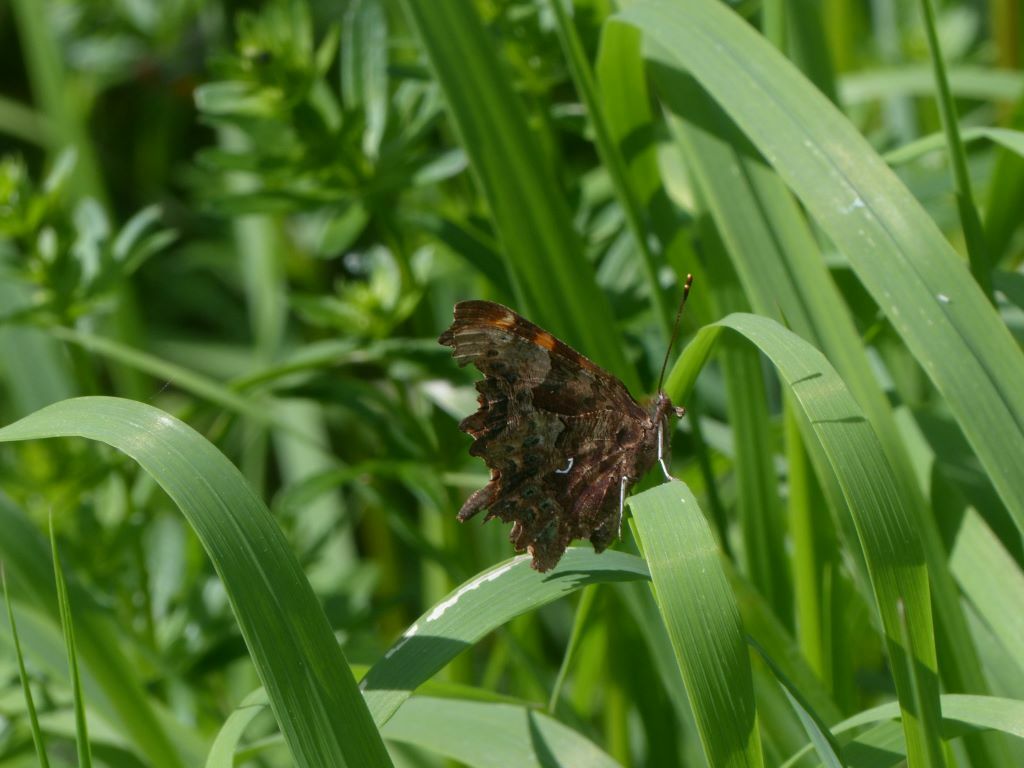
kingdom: Animalia
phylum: Arthropoda
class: Insecta
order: Lepidoptera
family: Nymphalidae
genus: Polygonia
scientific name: Polygonia c-album
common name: Comma
